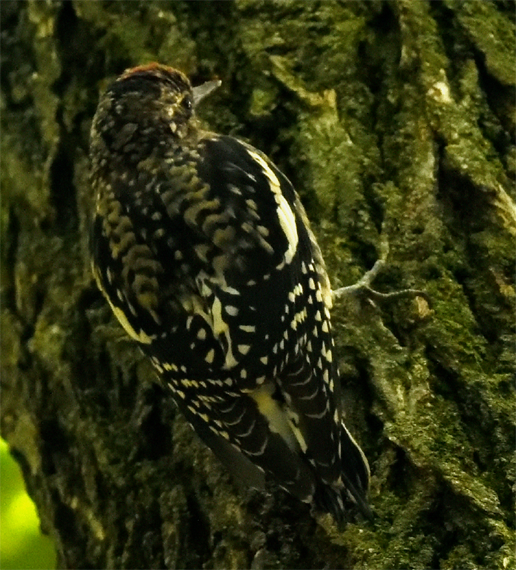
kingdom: Animalia
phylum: Chordata
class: Aves
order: Piciformes
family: Picidae
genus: Sphyrapicus
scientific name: Sphyrapicus varius
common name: Yellow-bellied sapsucker
